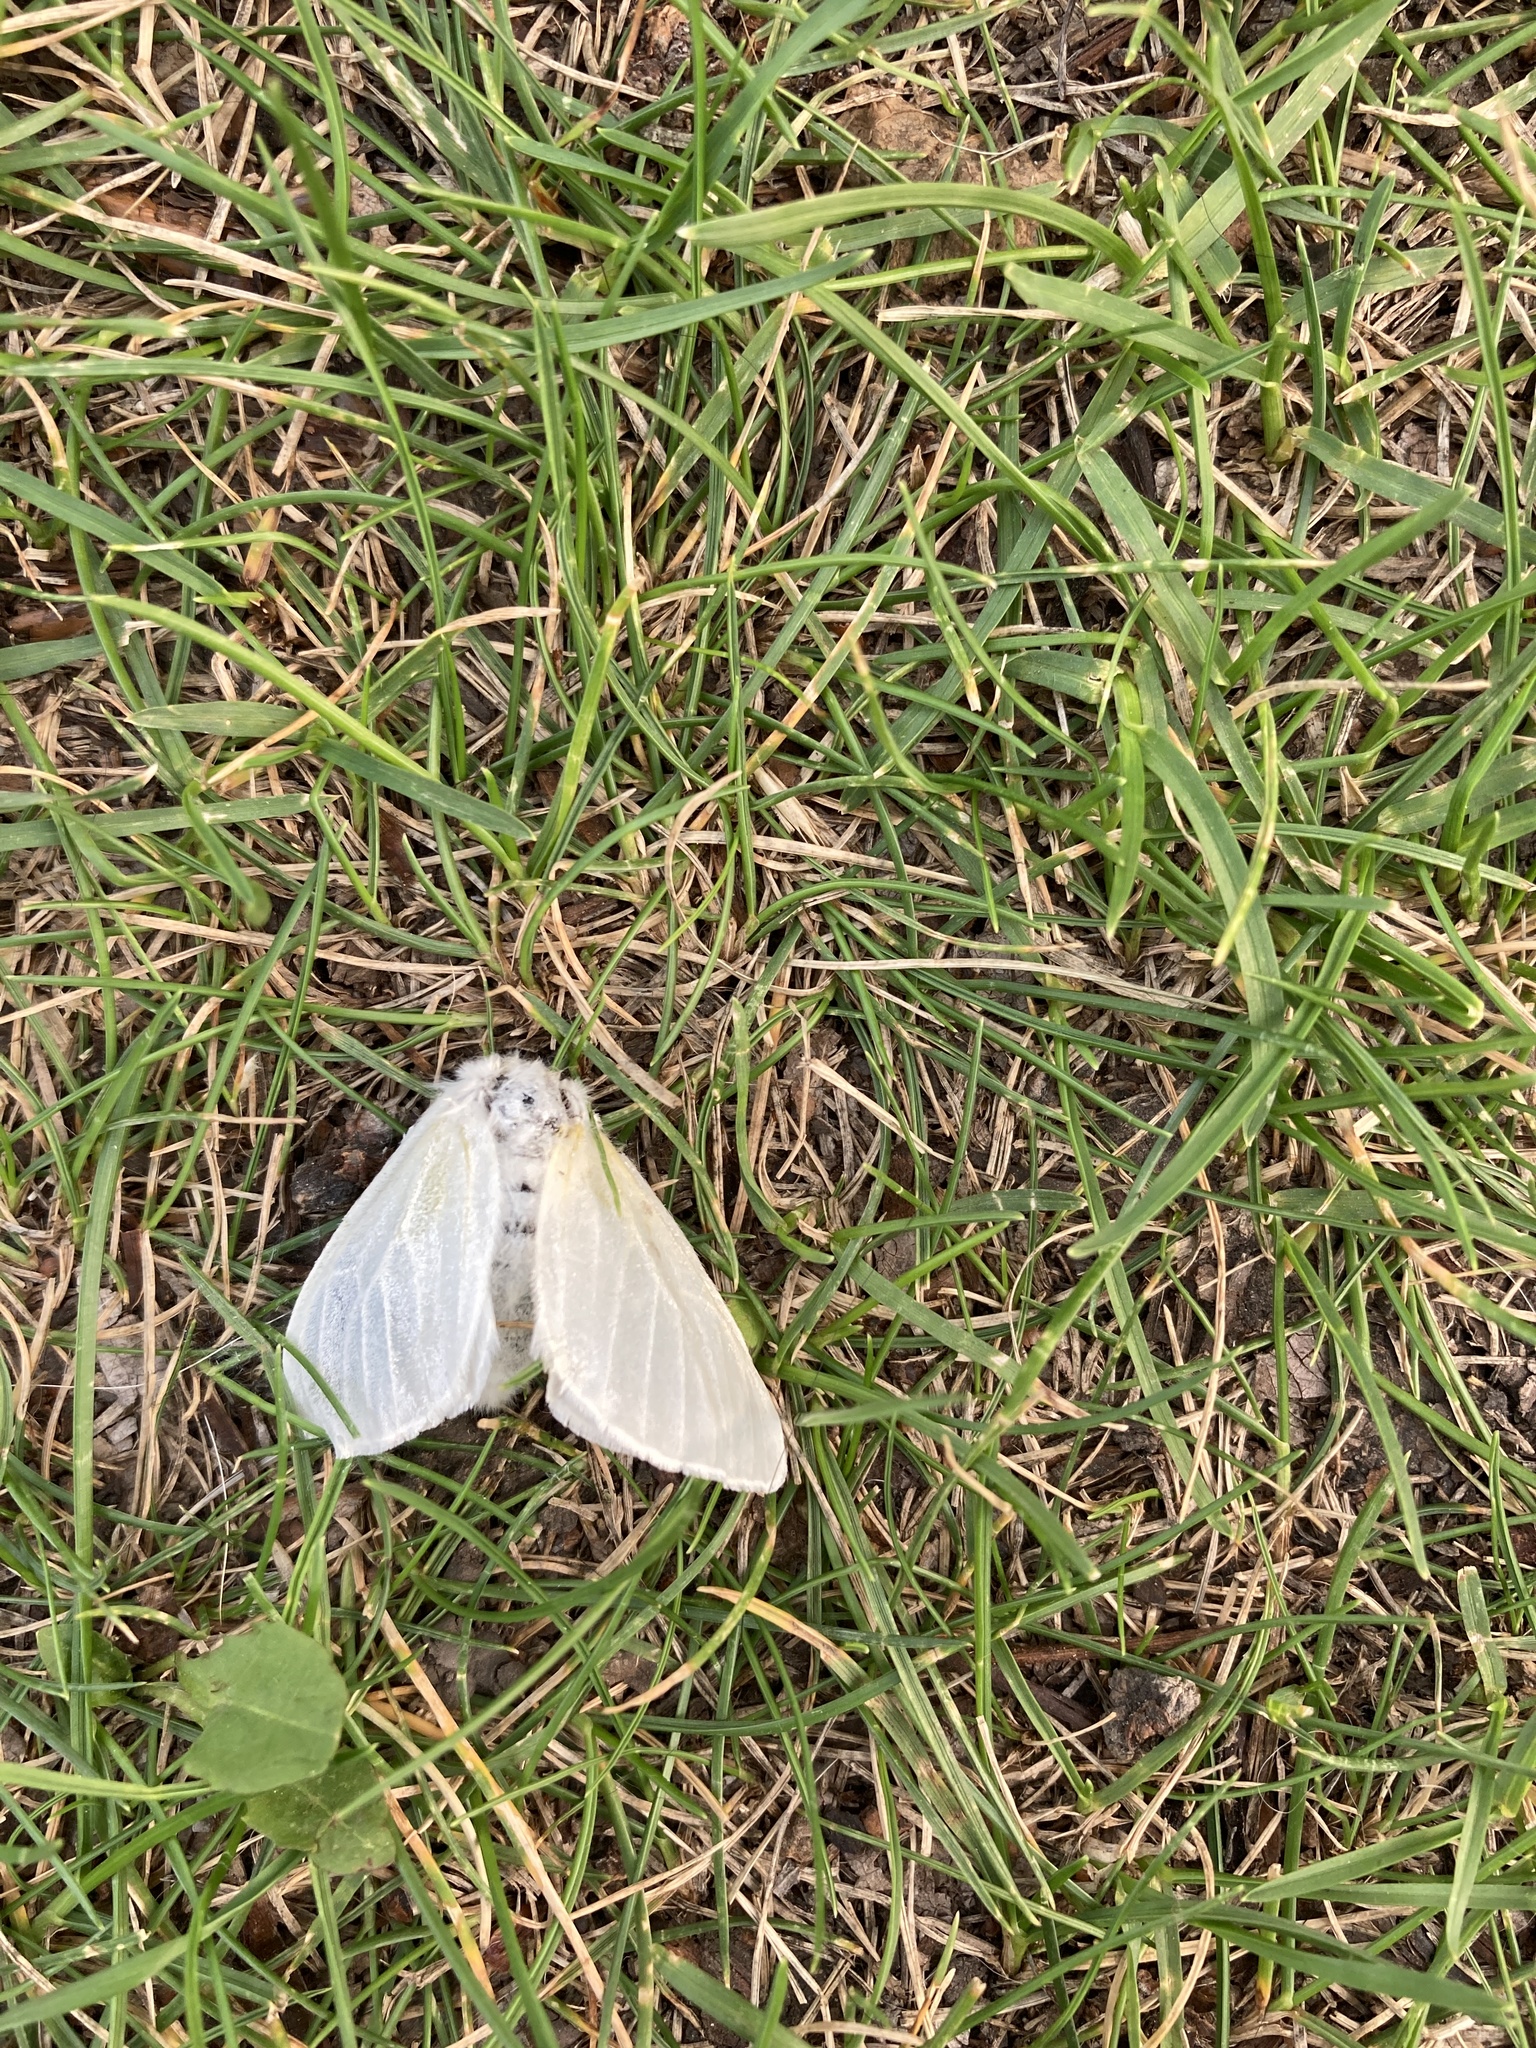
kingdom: Animalia
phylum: Arthropoda
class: Insecta
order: Lepidoptera
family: Erebidae
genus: Leucoma
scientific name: Leucoma salicis
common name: White satin moth
